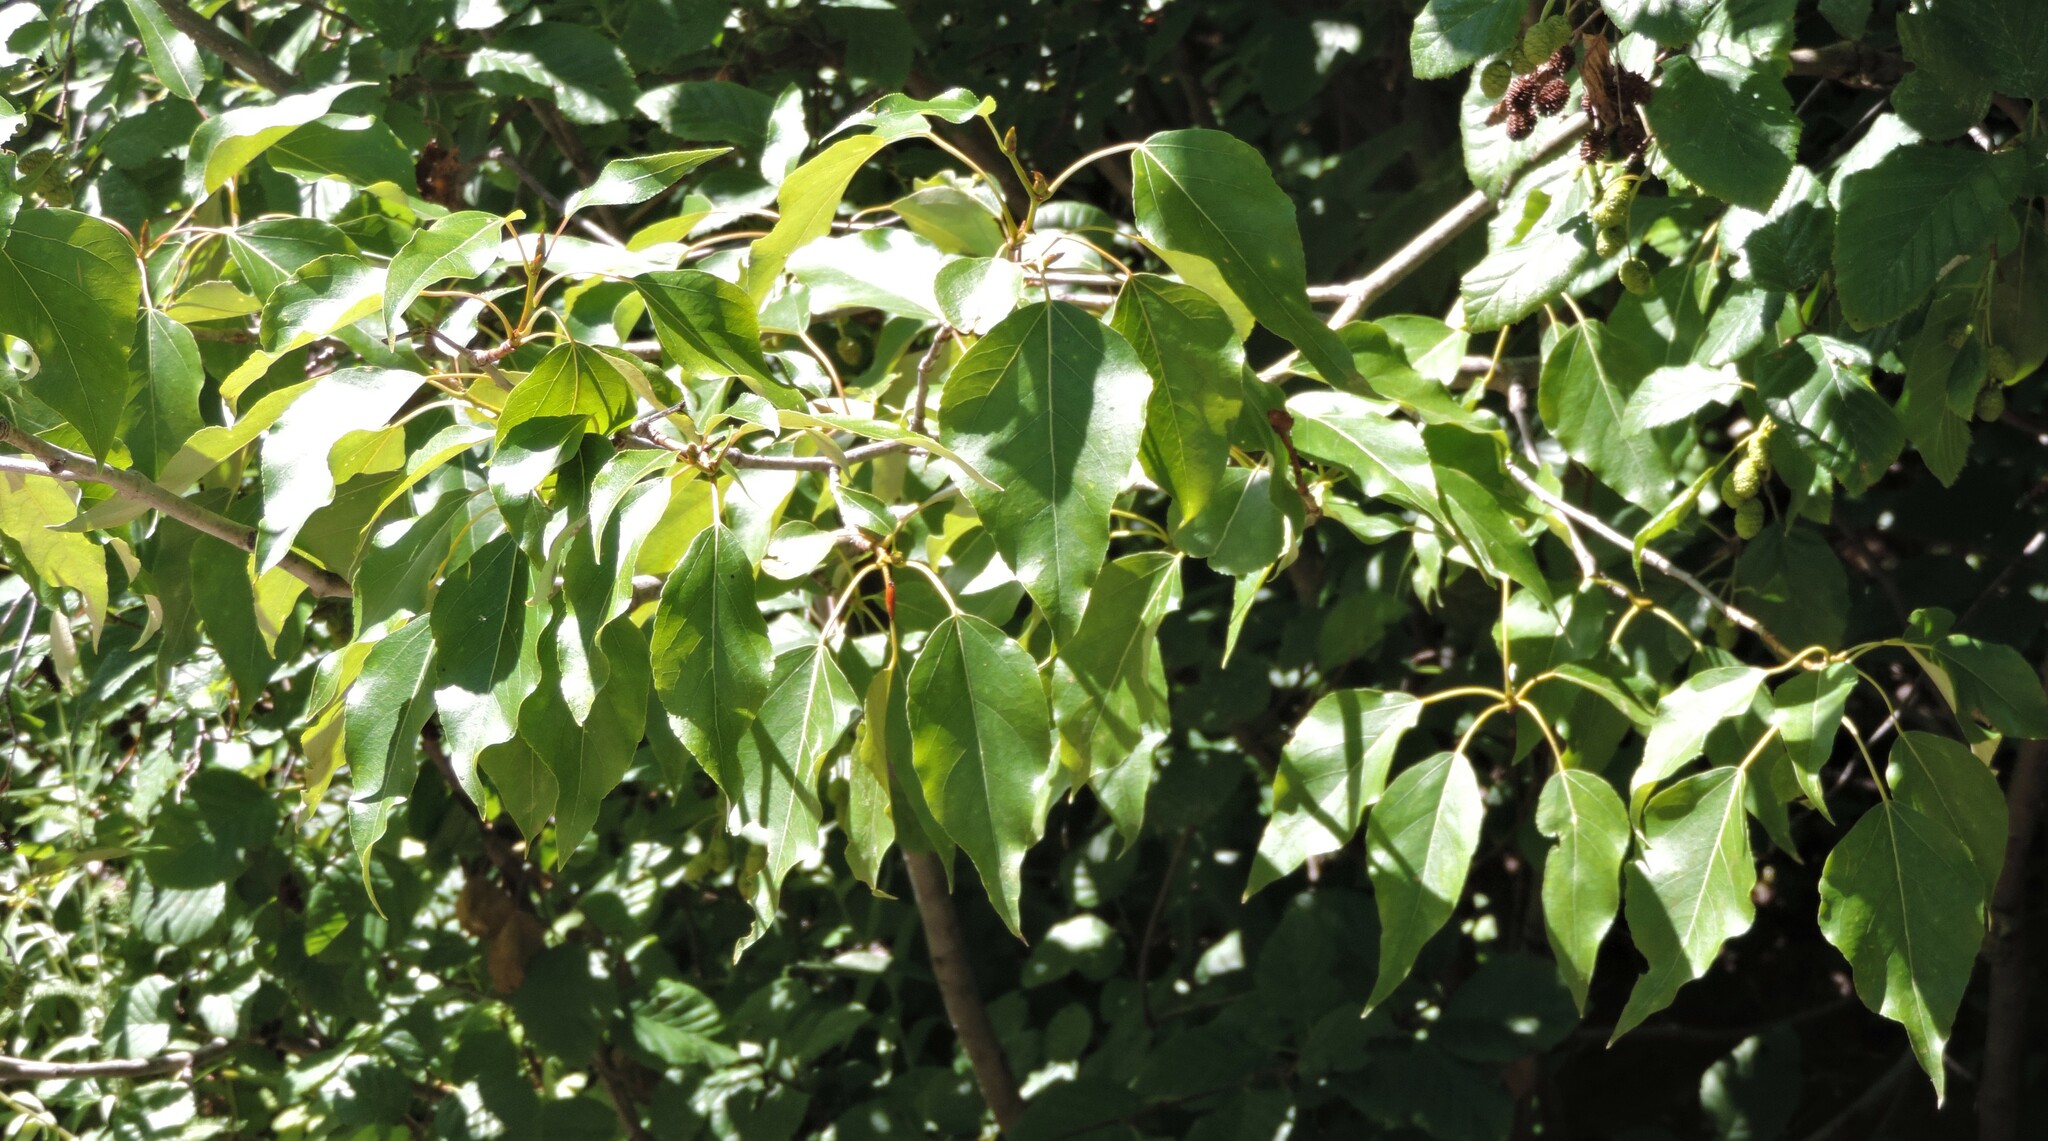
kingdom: Plantae
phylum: Tracheophyta
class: Magnoliopsida
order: Malpighiales
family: Salicaceae
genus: Populus
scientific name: Populus trichocarpa
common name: Black cottonwood
